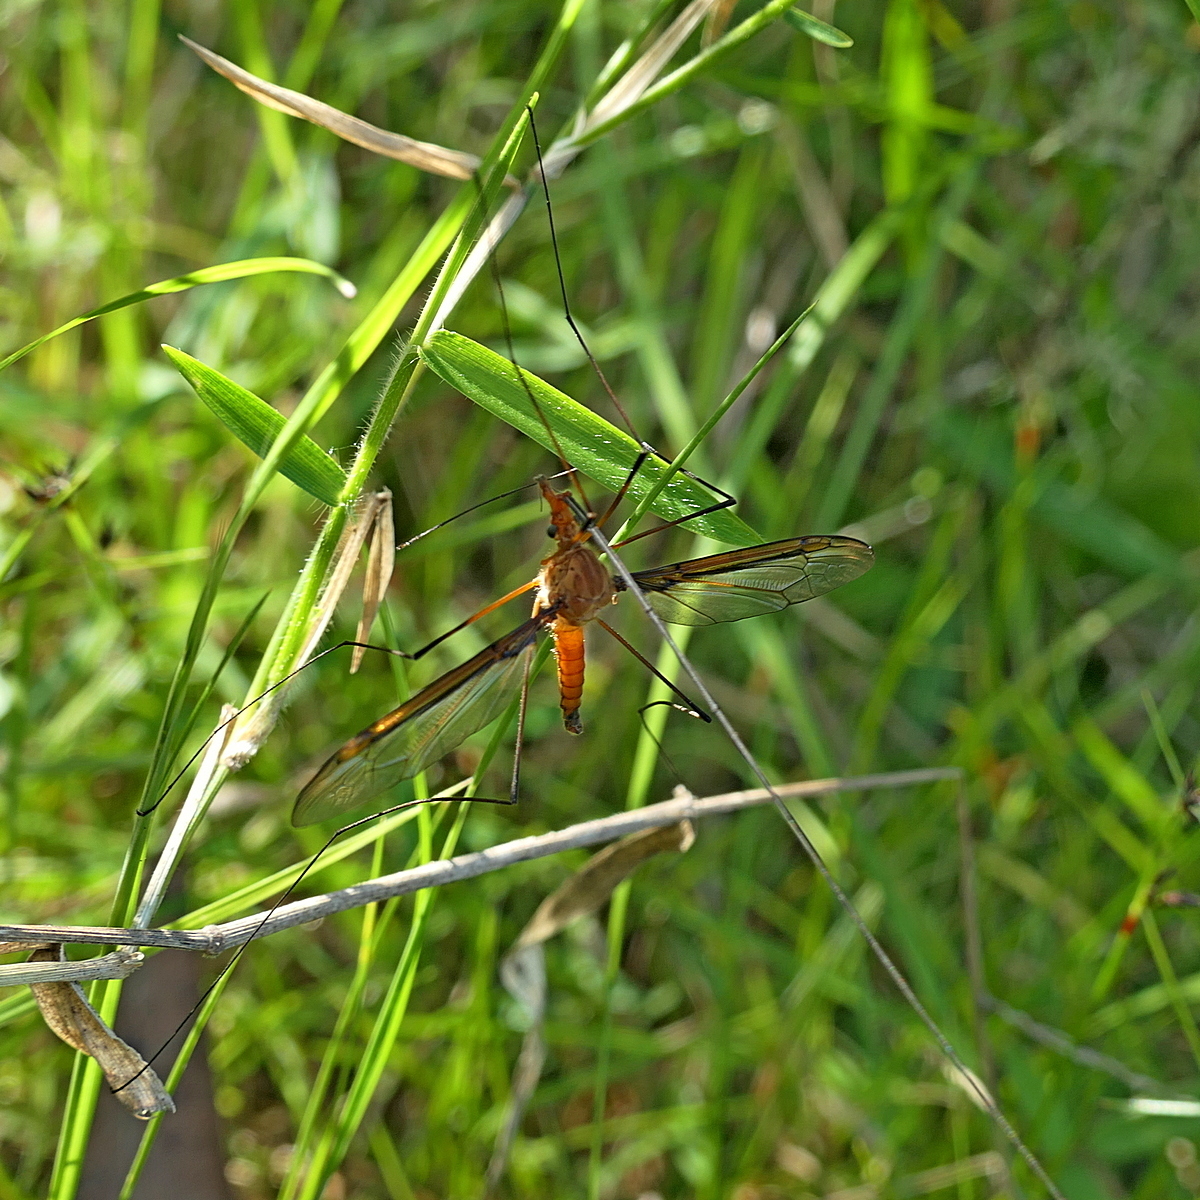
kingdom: Animalia
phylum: Arthropoda
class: Insecta
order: Diptera
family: Tipulidae
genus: Leptotarsus
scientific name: Leptotarsus costalis
